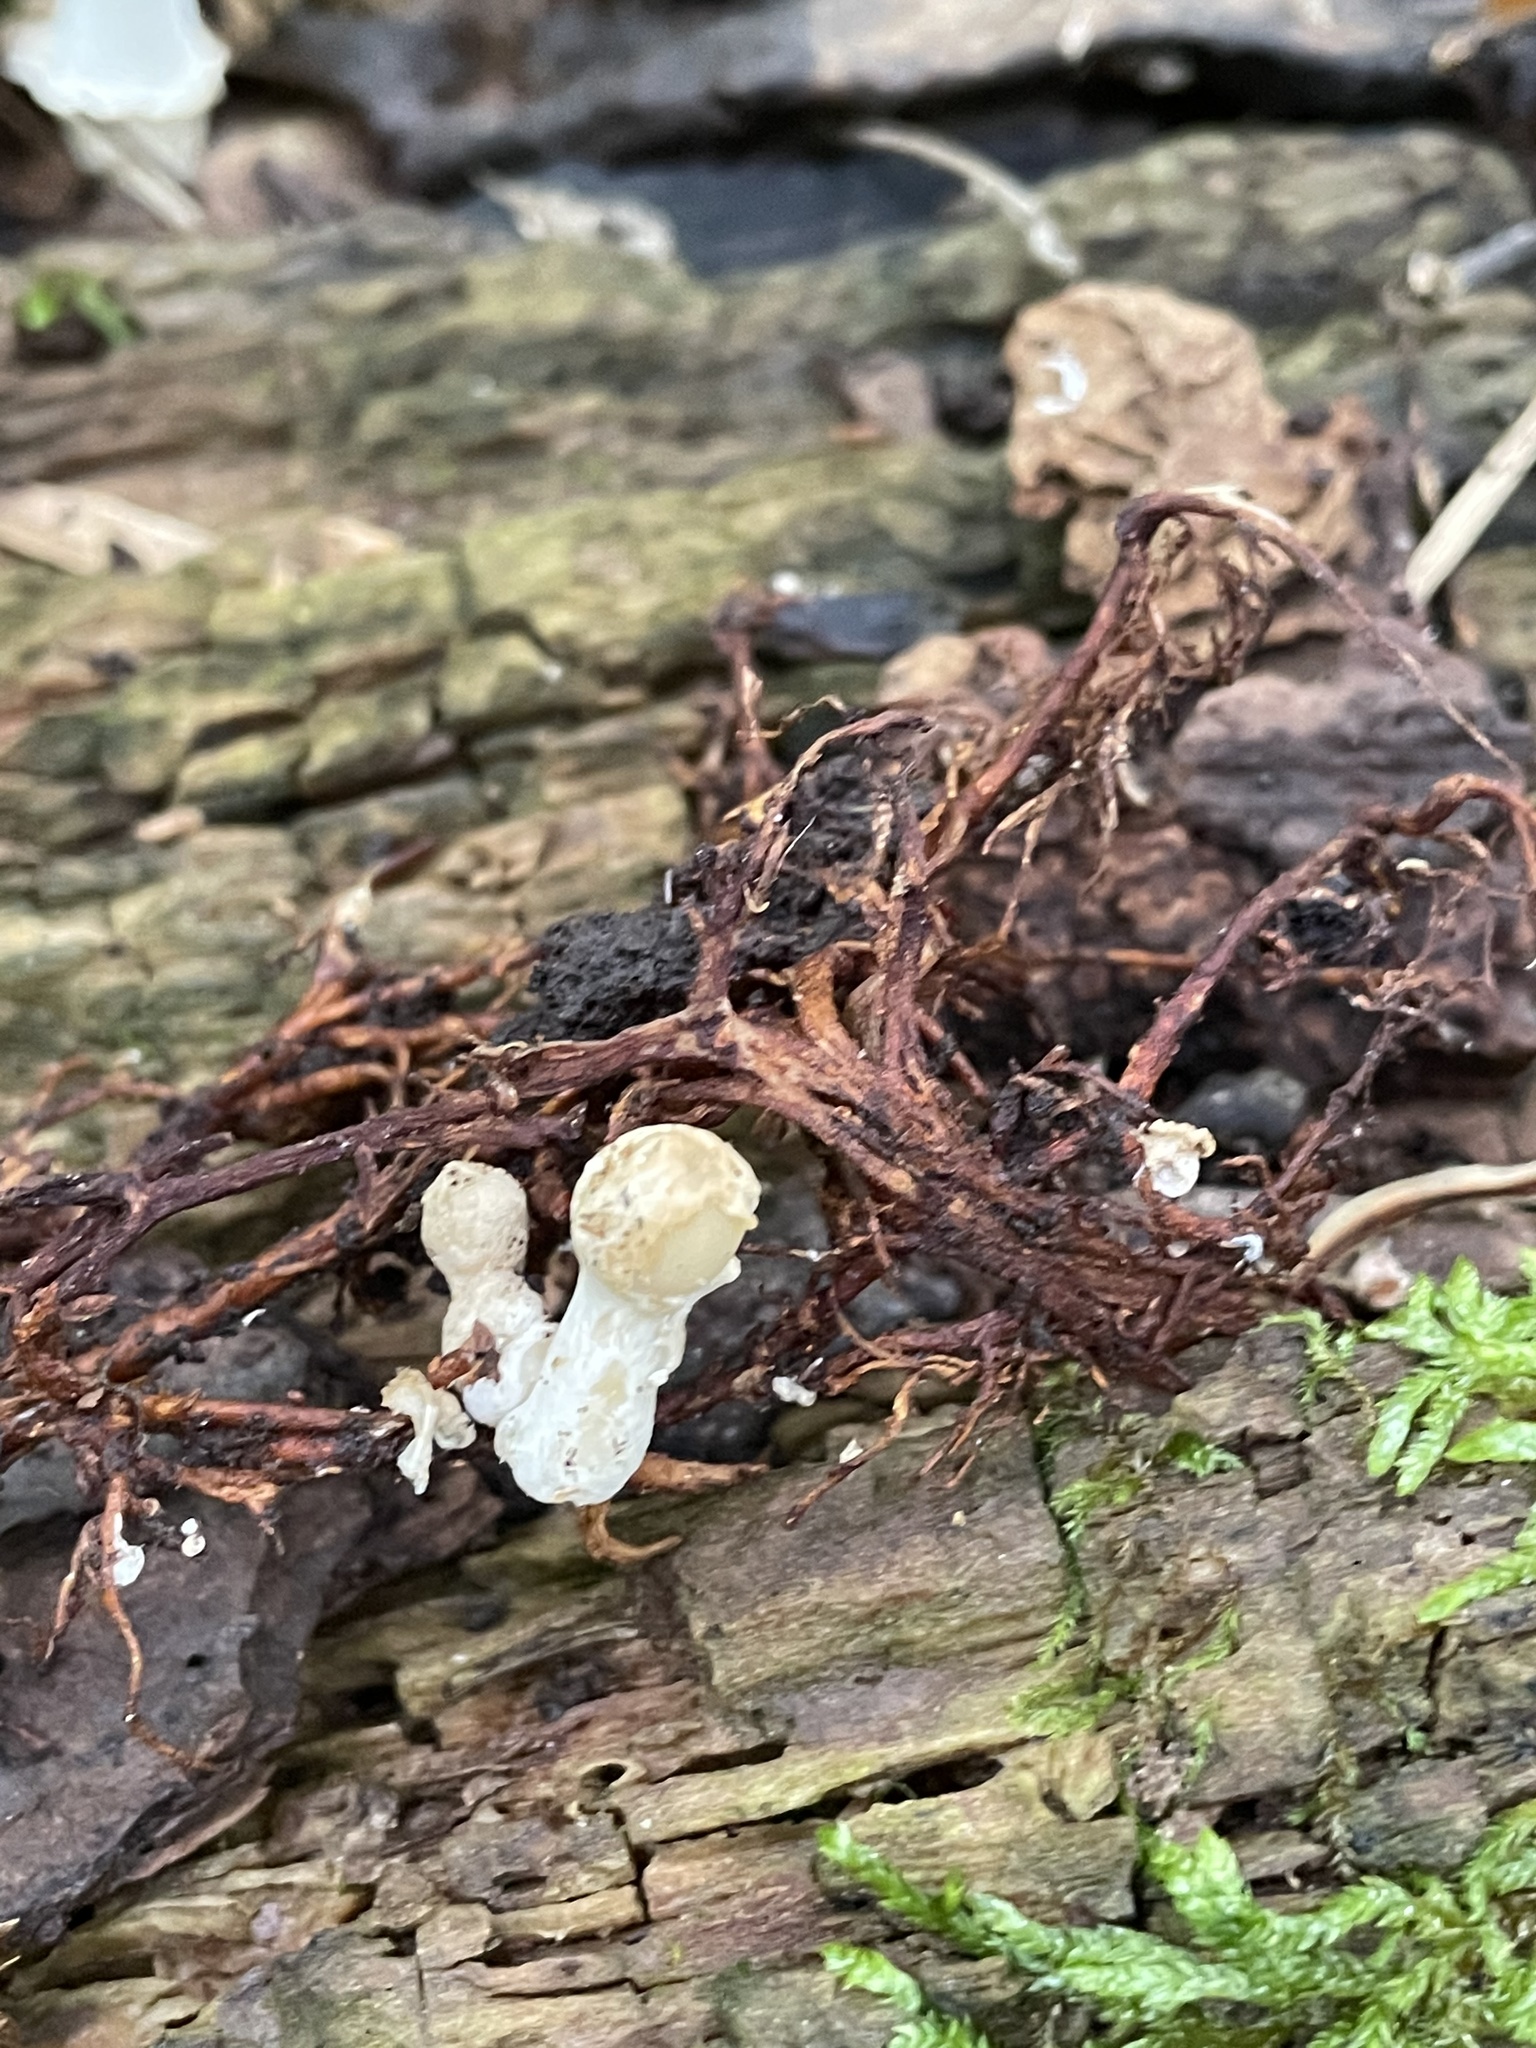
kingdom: Fungi
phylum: Basidiomycota
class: Agaricomycetes
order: Agaricales
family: Psathyrellaceae
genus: Coprinopsis
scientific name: Coprinopsis variegata
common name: Scaly ink cap
